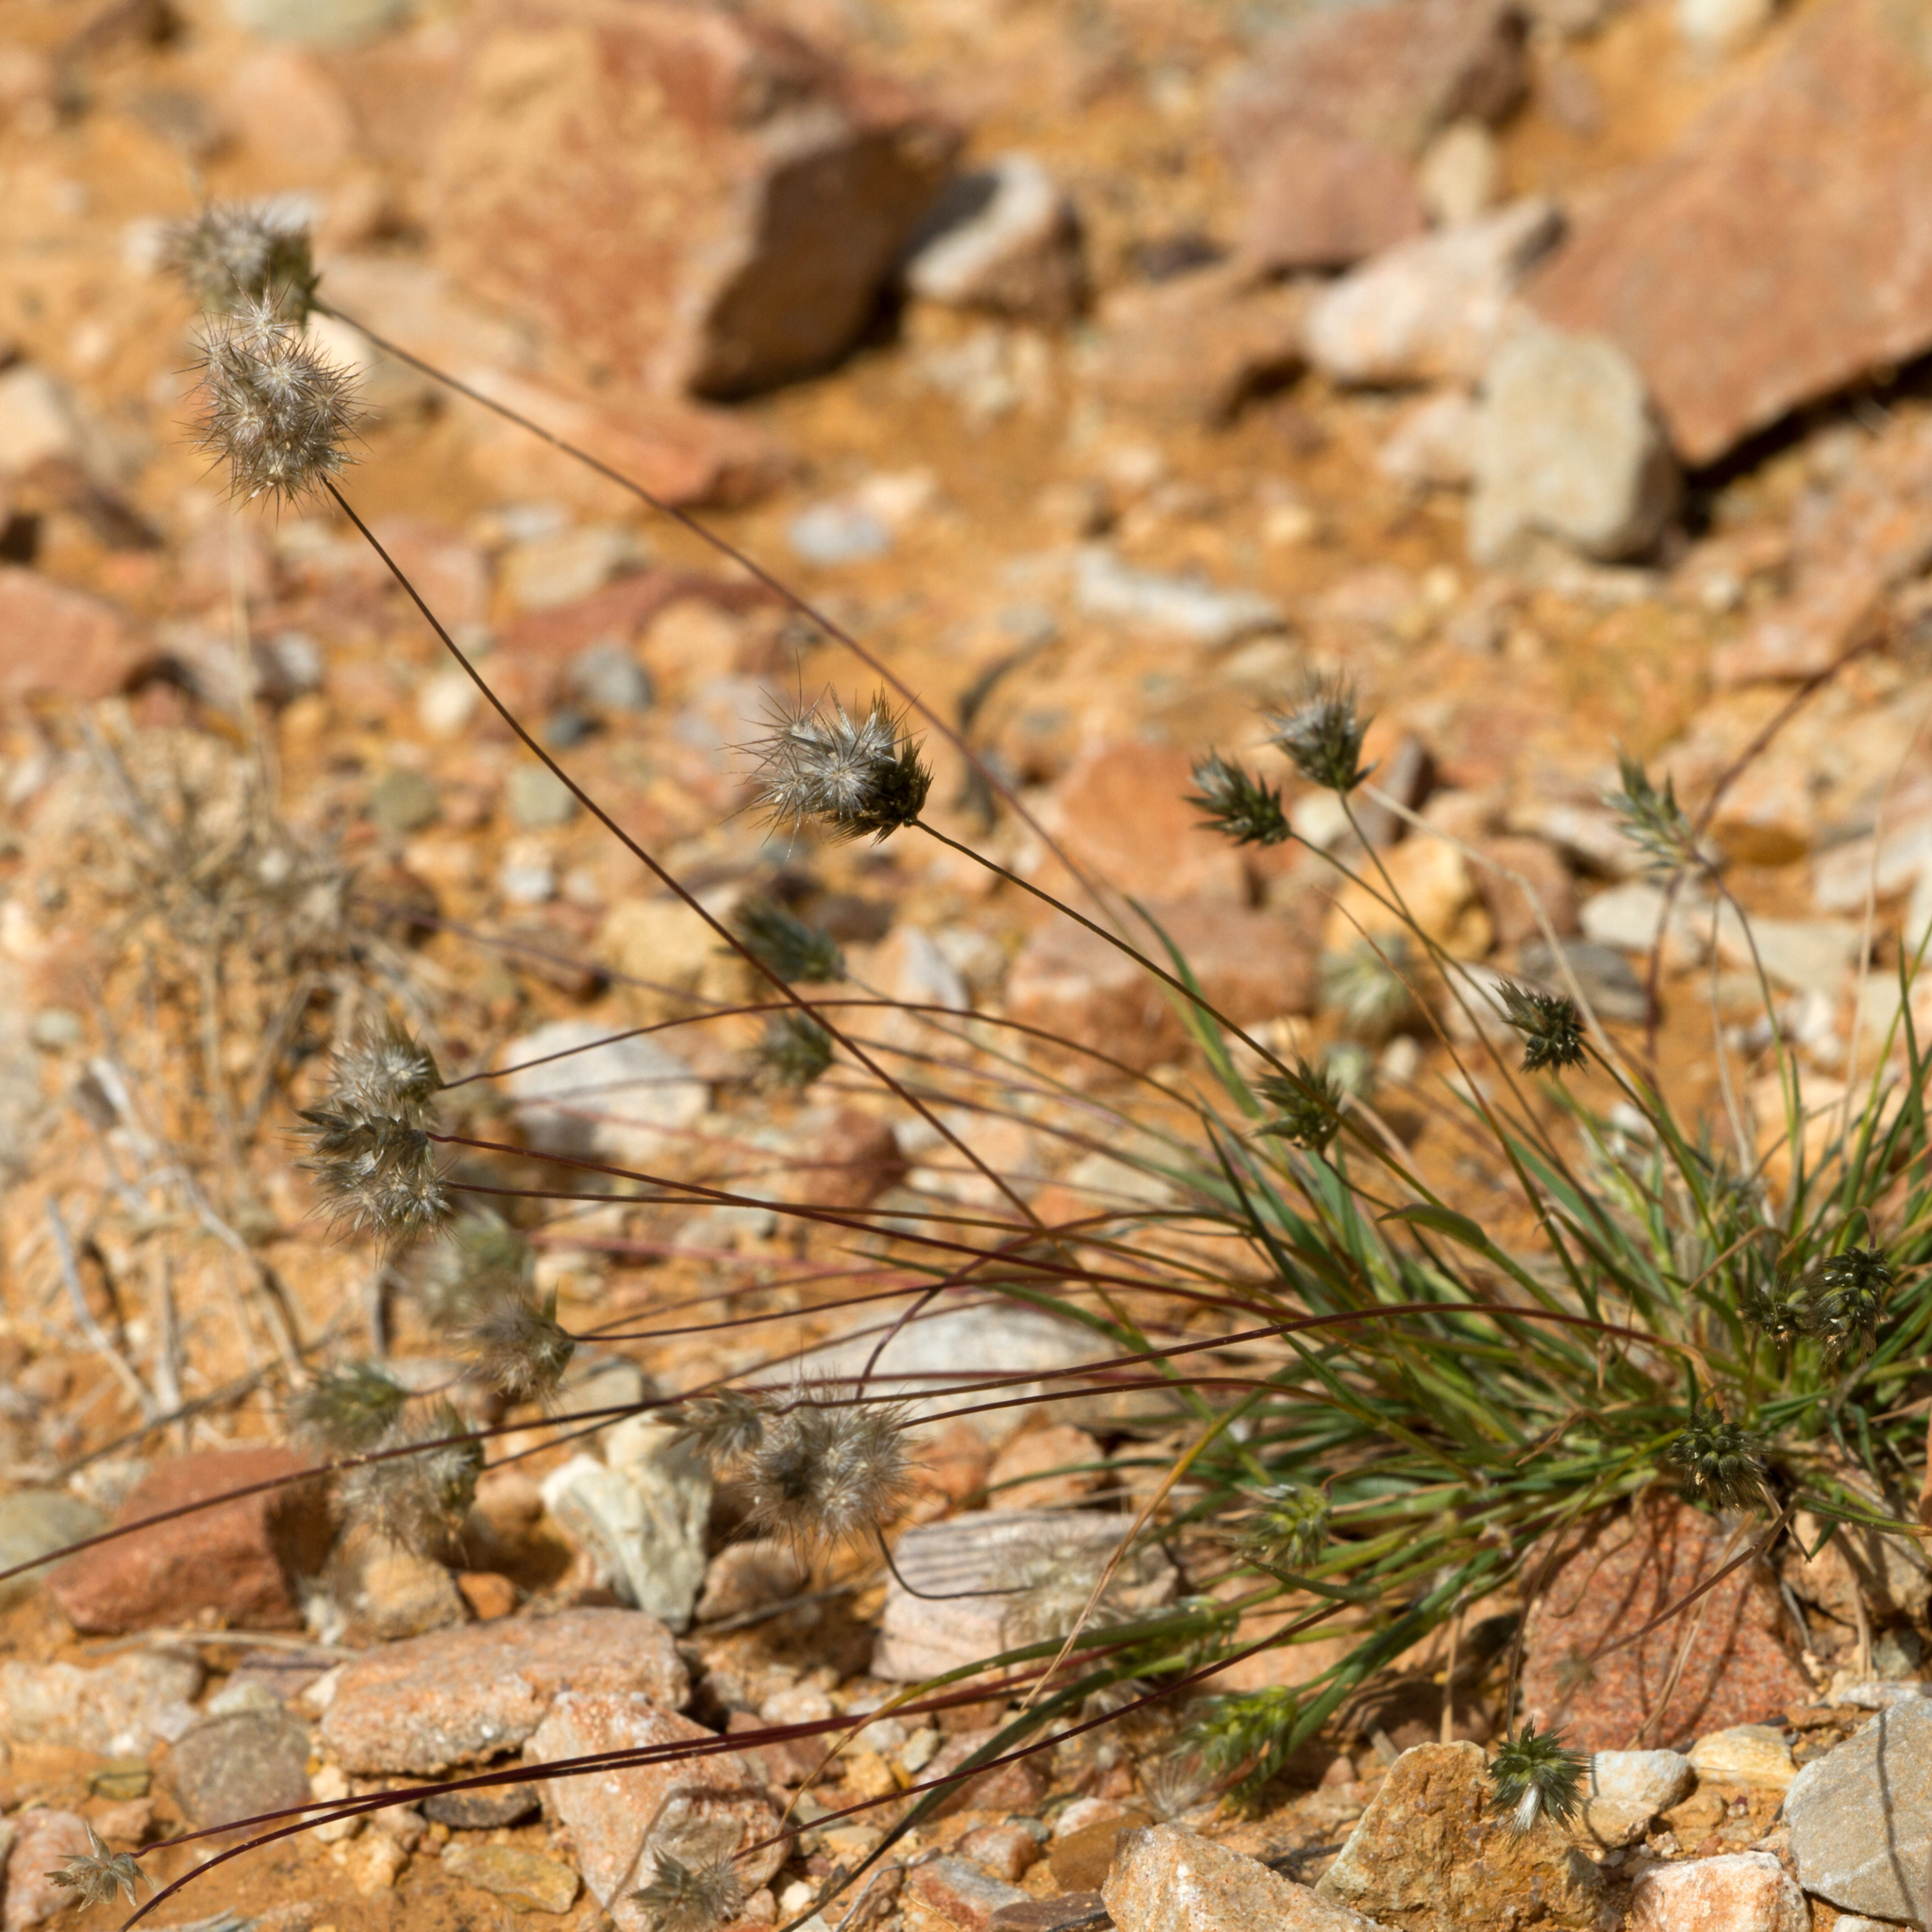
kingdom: Plantae
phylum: Tracheophyta
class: Liliopsida
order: Poales
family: Poaceae
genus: Enneapogon
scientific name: Enneapogon lindleyanus
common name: Conetop nineawn
